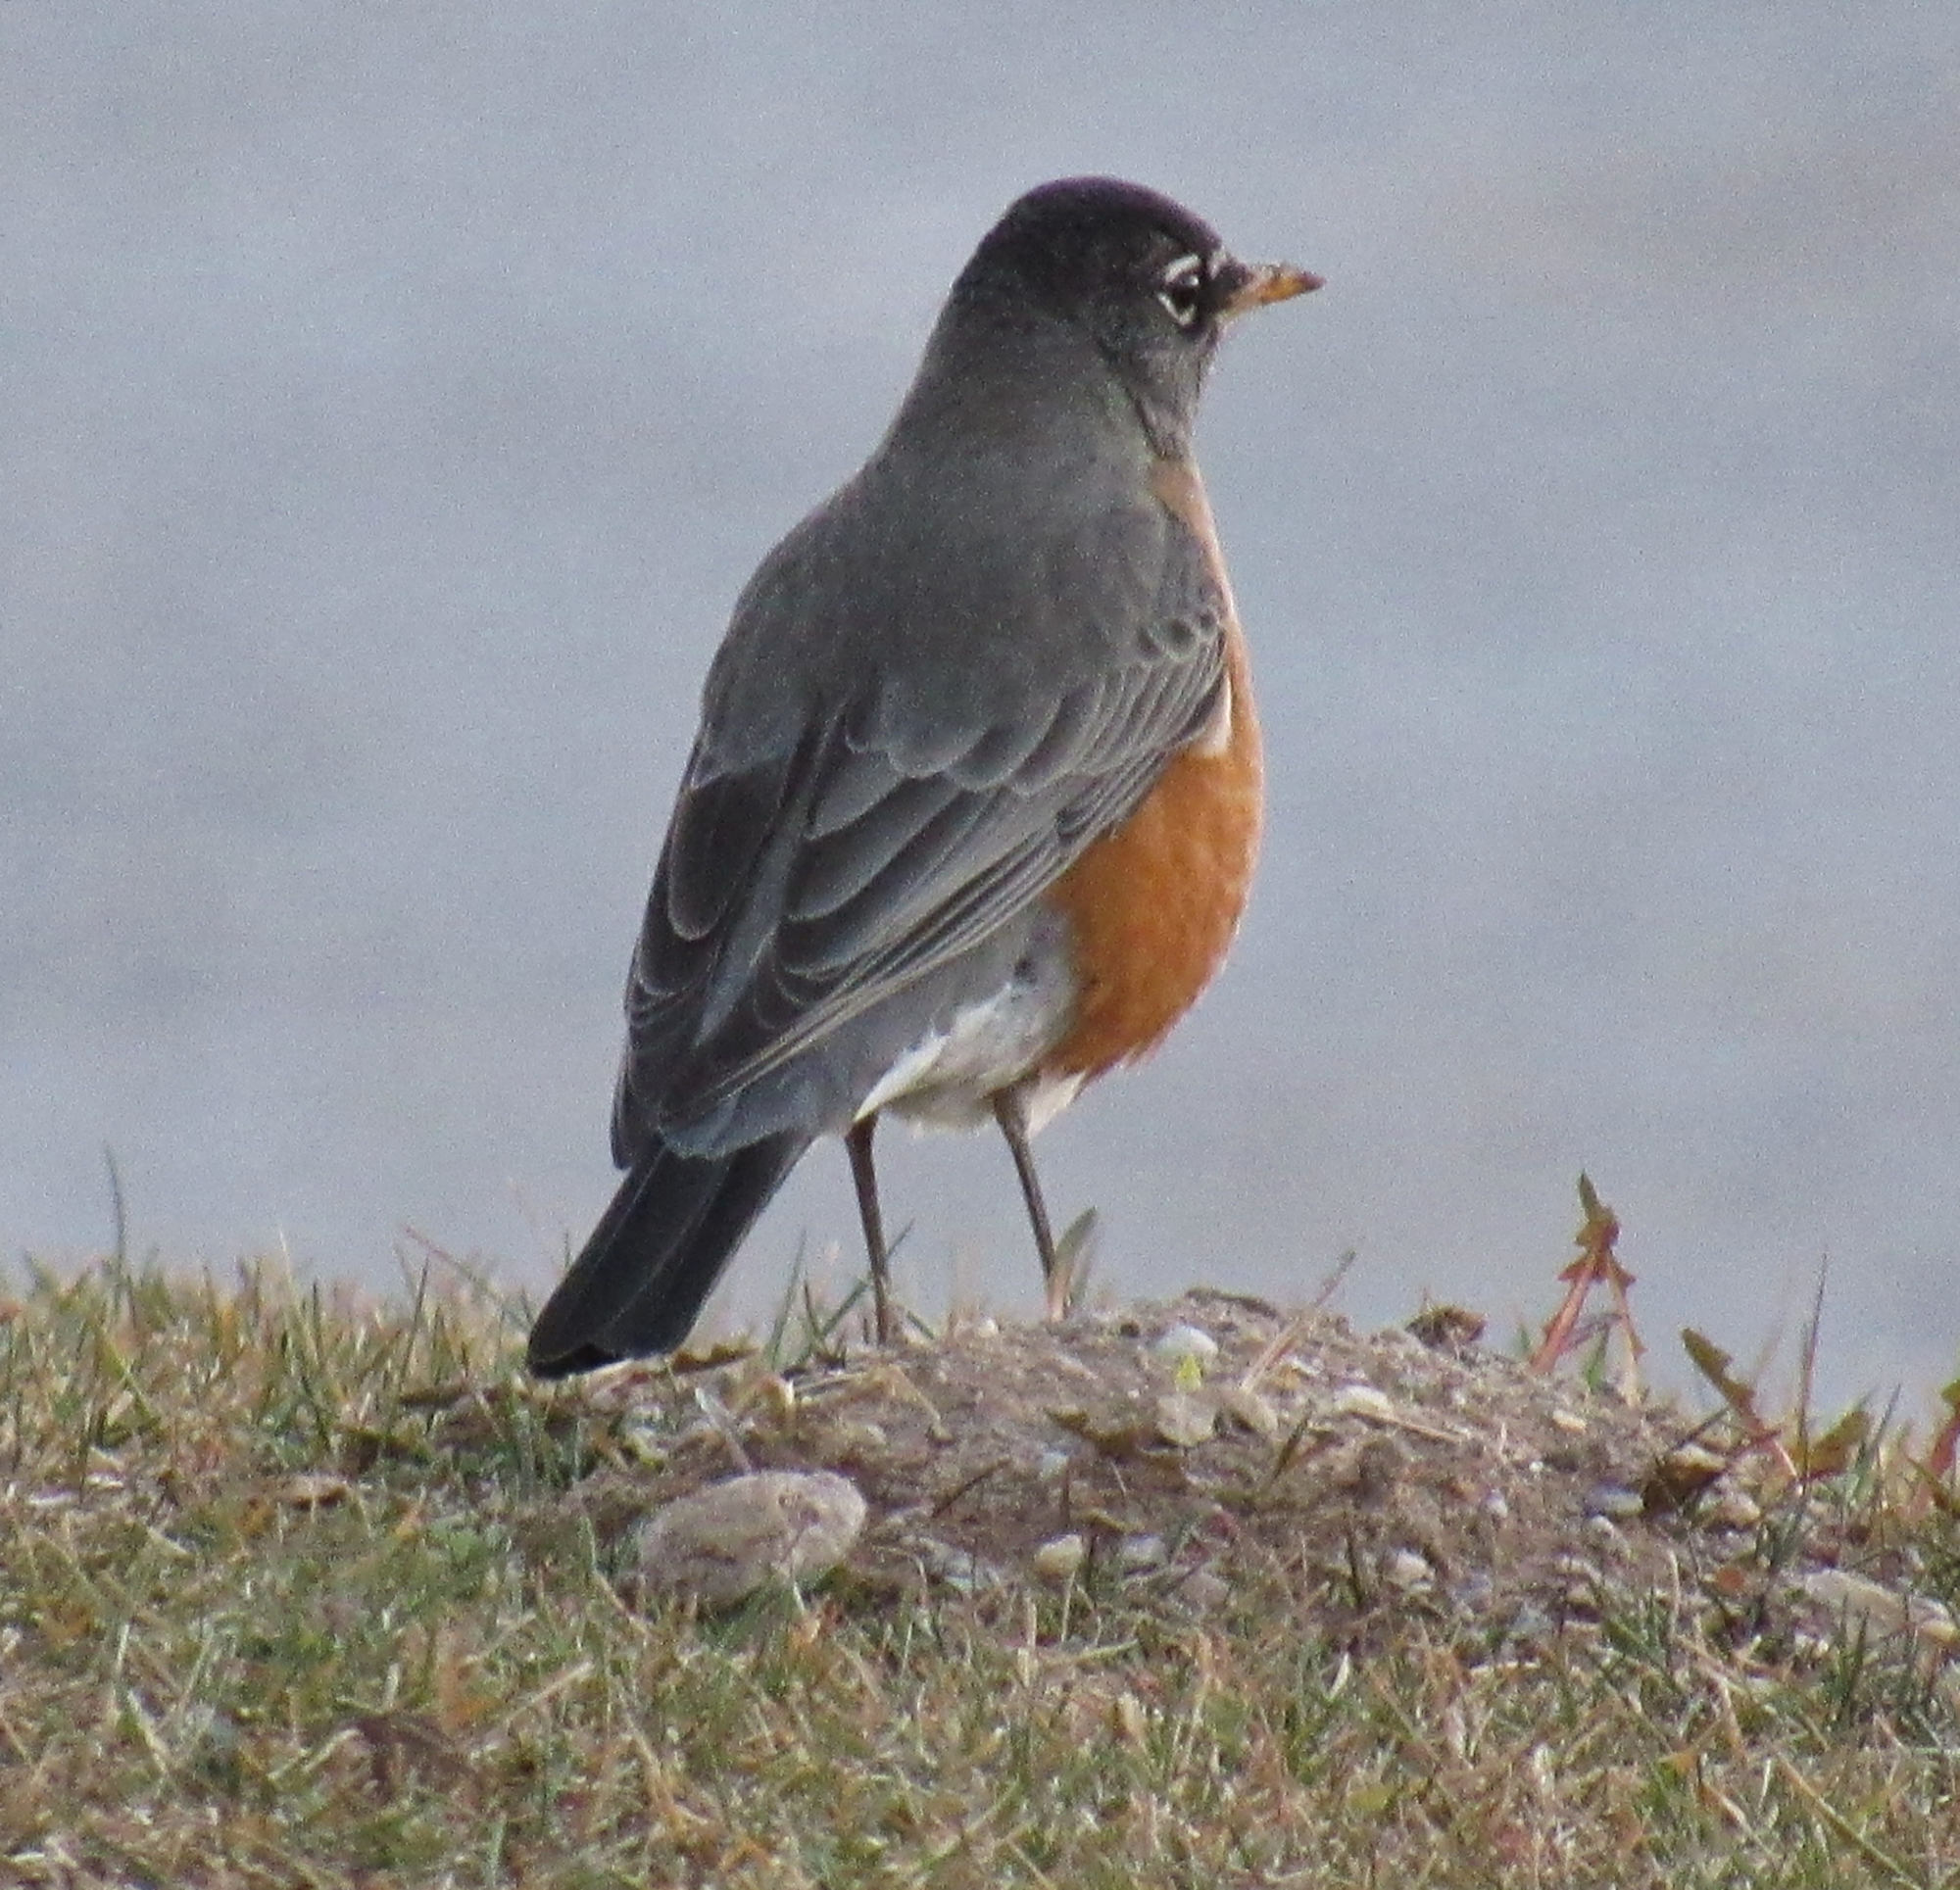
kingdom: Animalia
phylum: Chordata
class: Aves
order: Passeriformes
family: Turdidae
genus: Turdus
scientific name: Turdus migratorius
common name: American robin
